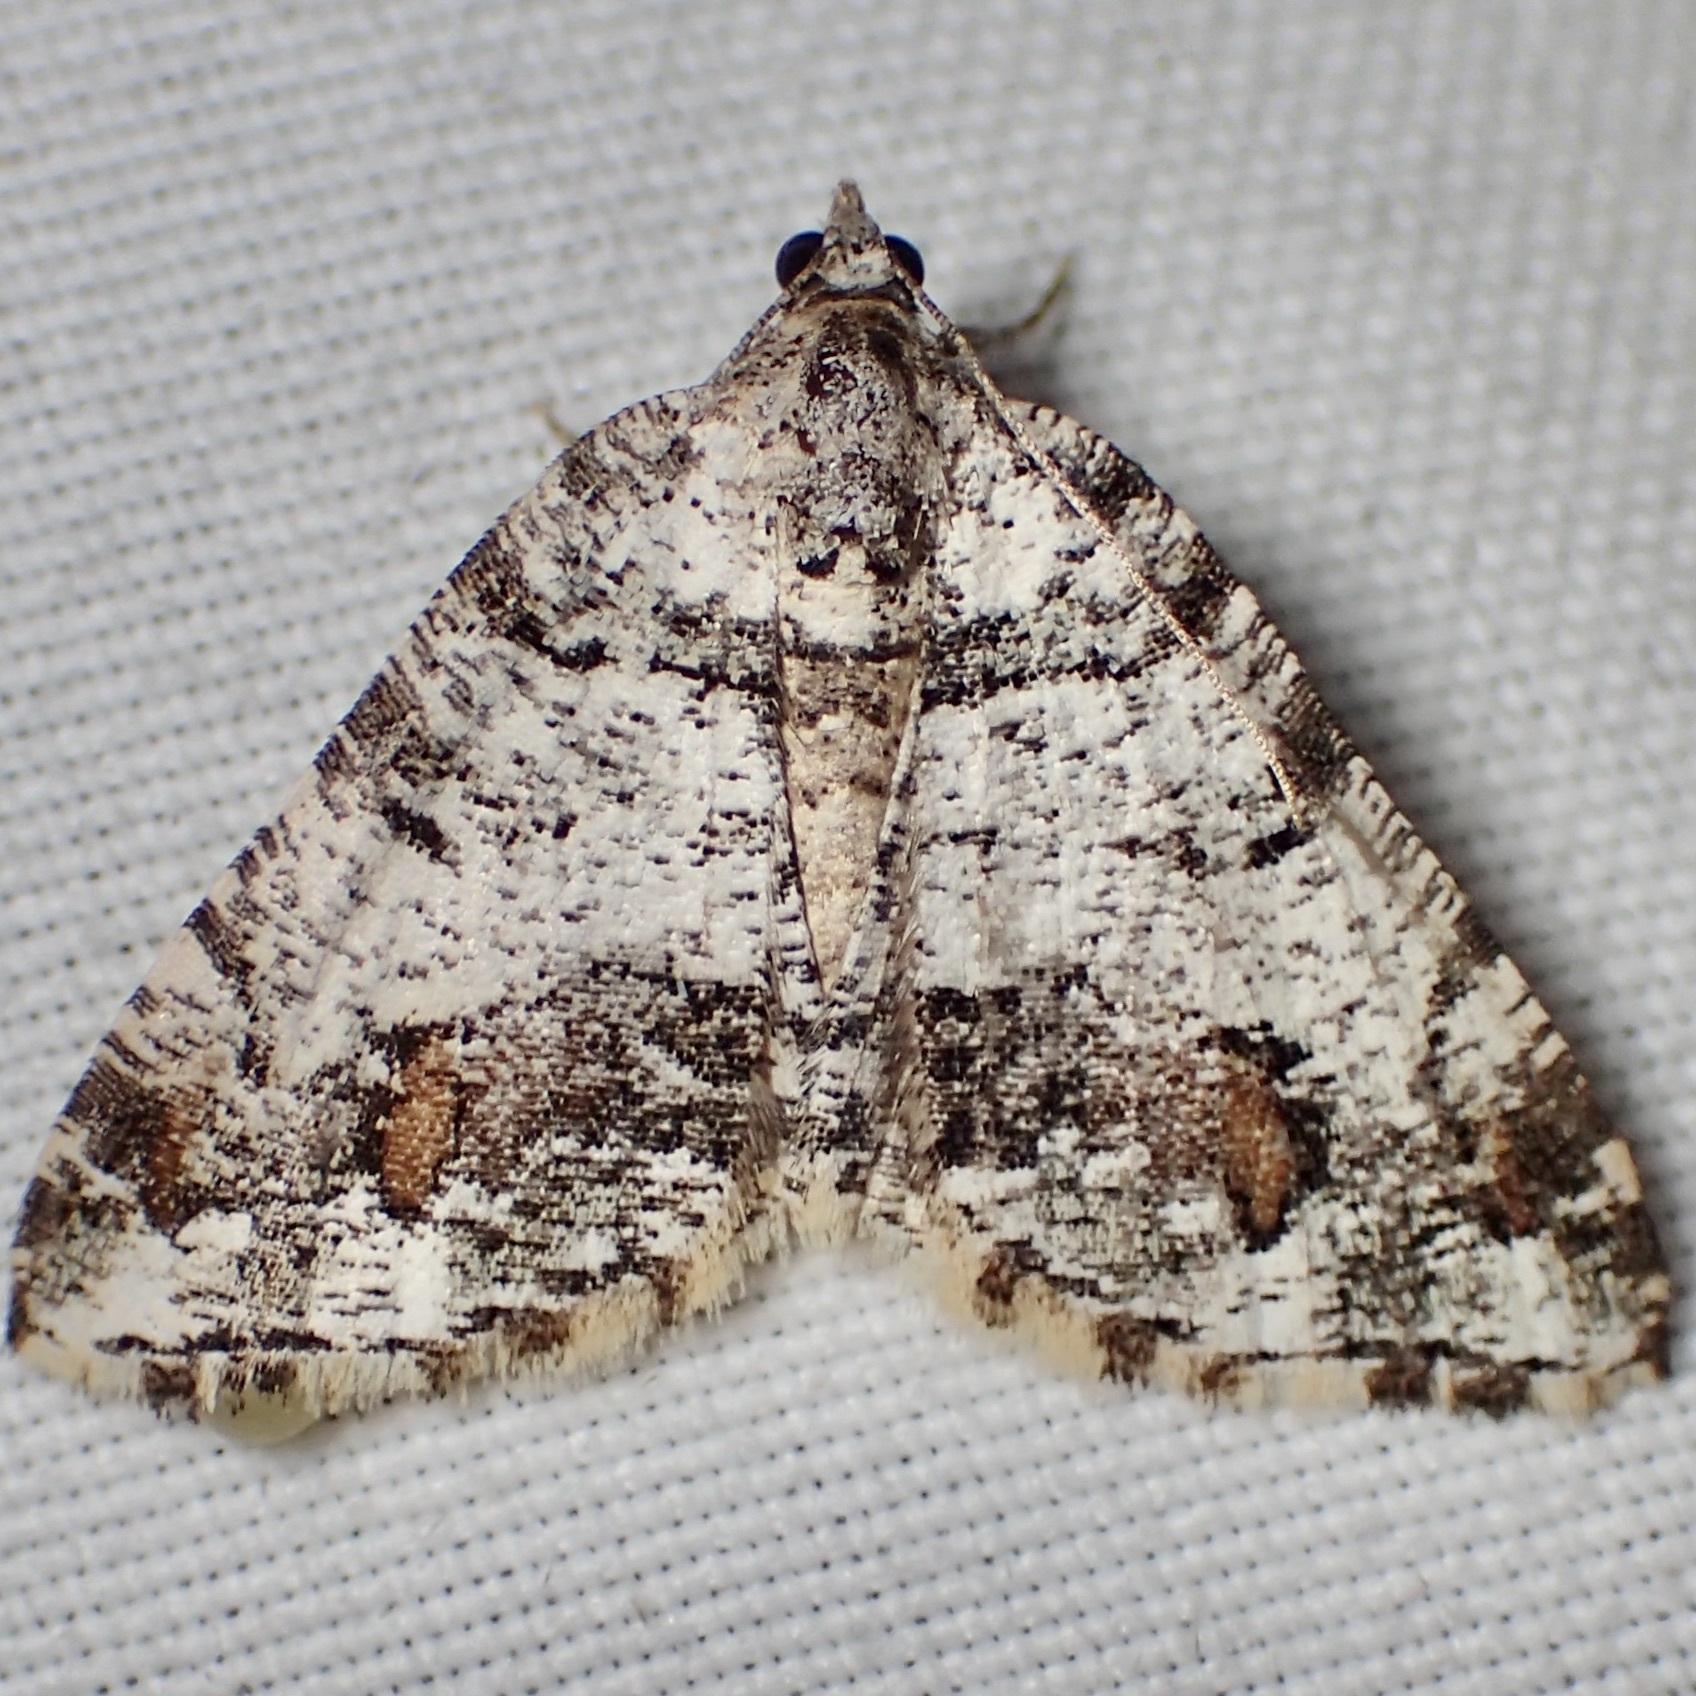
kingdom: Animalia
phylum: Arthropoda
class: Insecta
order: Lepidoptera
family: Geometridae
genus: Macaria
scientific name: Macaria deceptrix
